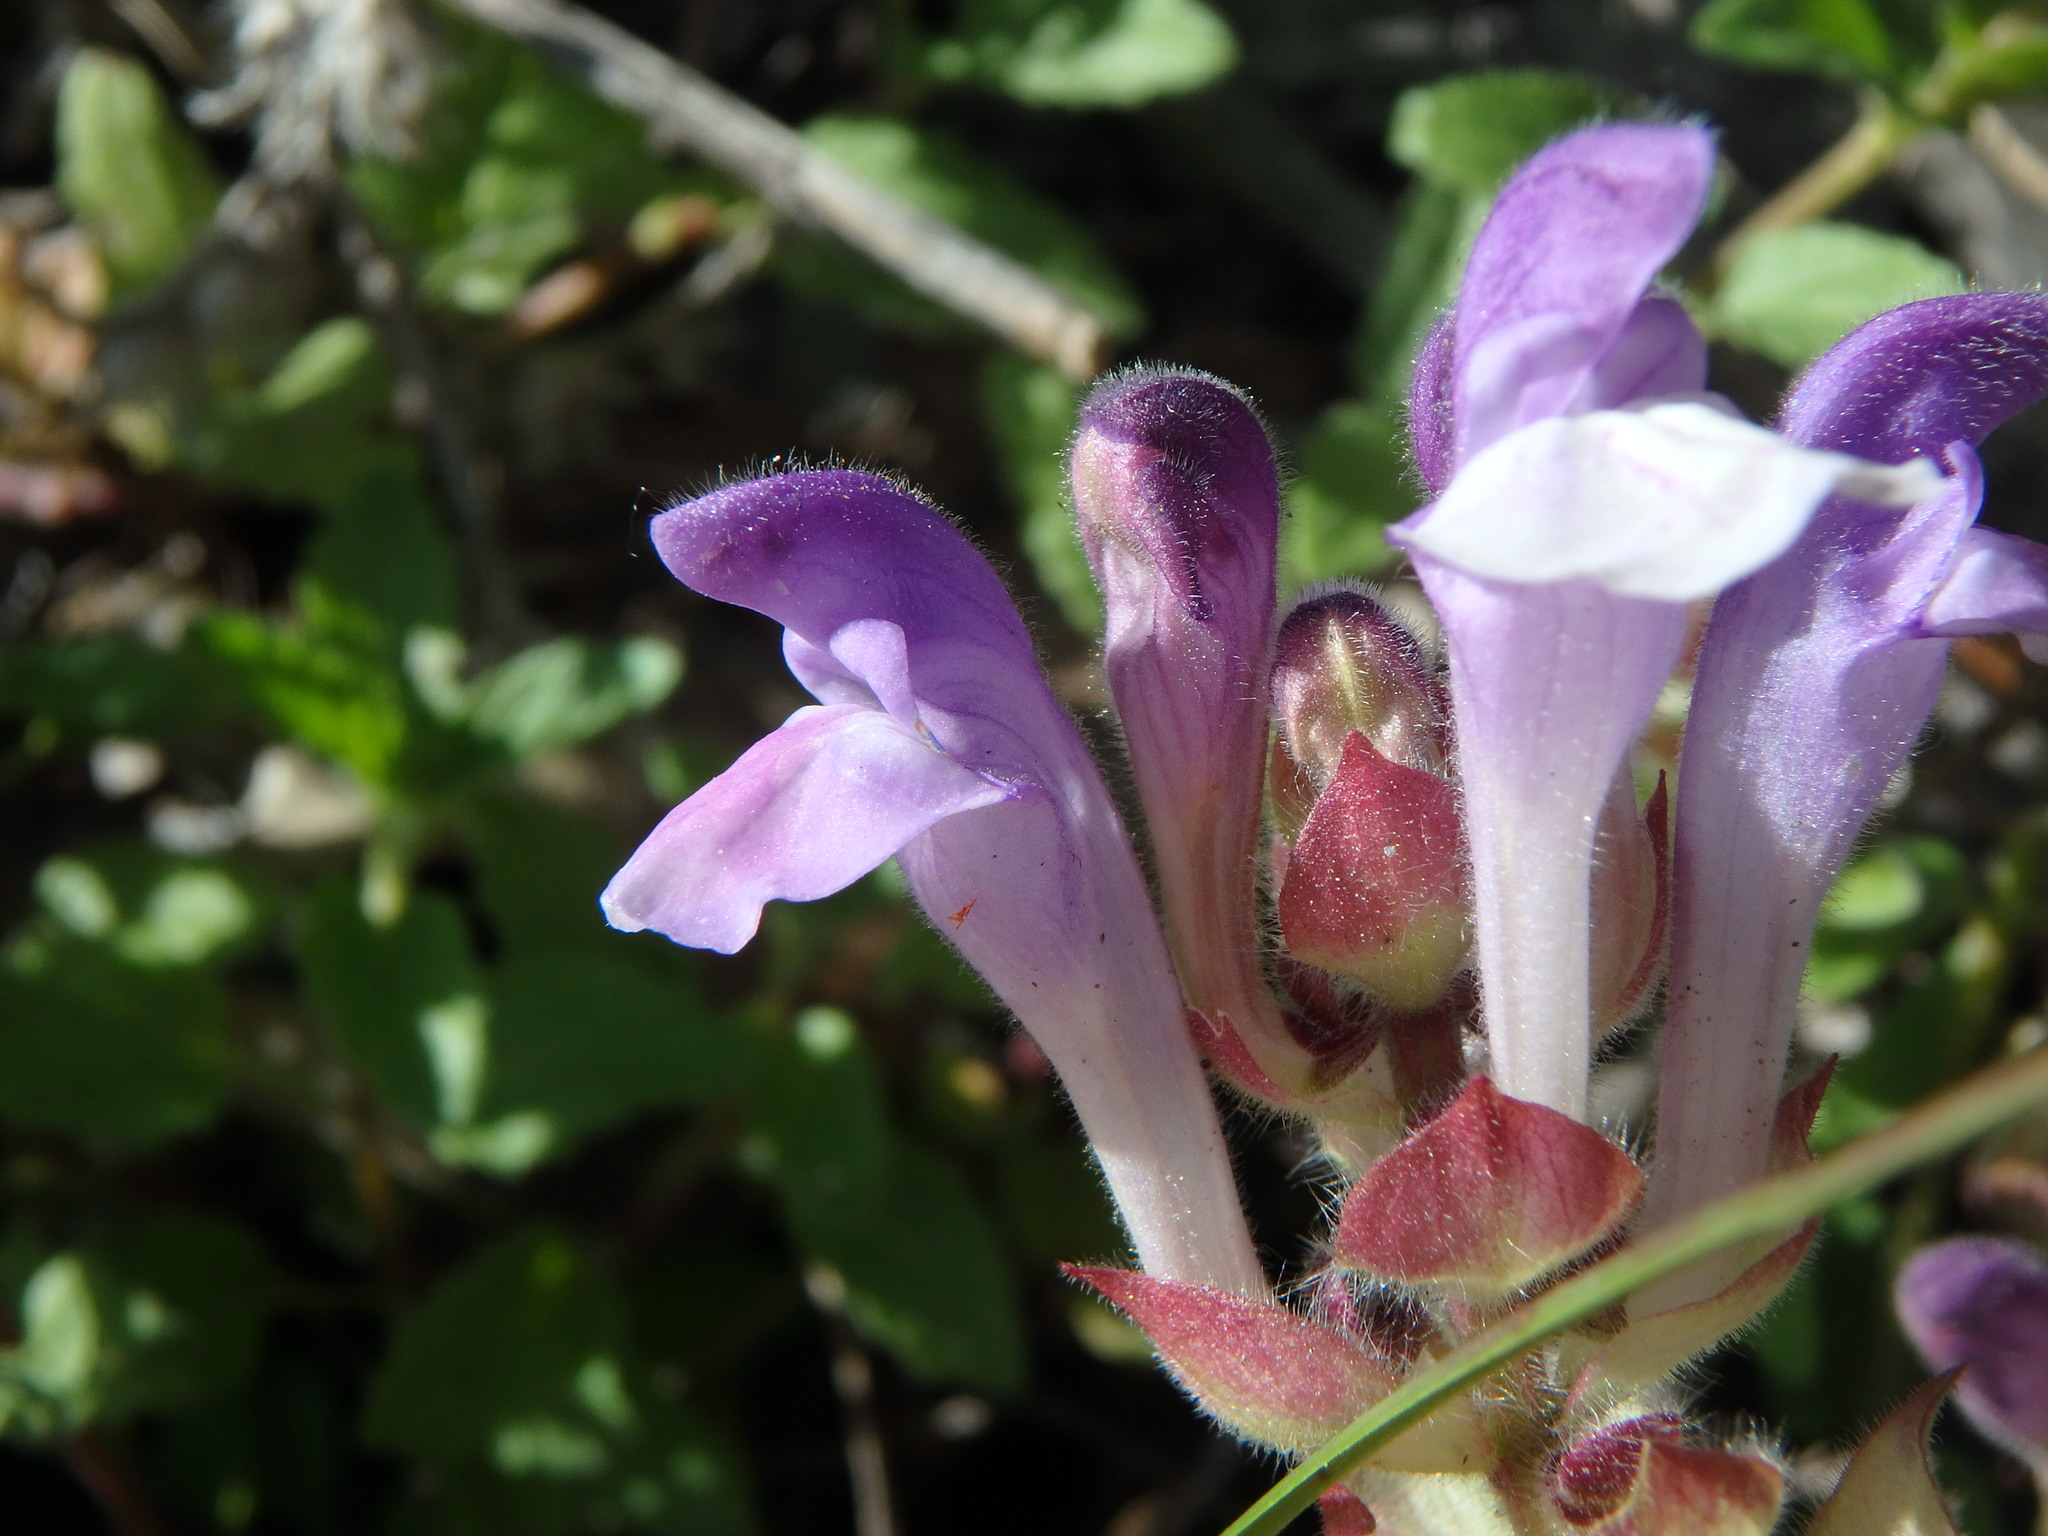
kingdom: Plantae
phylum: Tracheophyta
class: Magnoliopsida
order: Lamiales
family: Lamiaceae
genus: Scutellaria
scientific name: Scutellaria alpina
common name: Alpine scullcap
